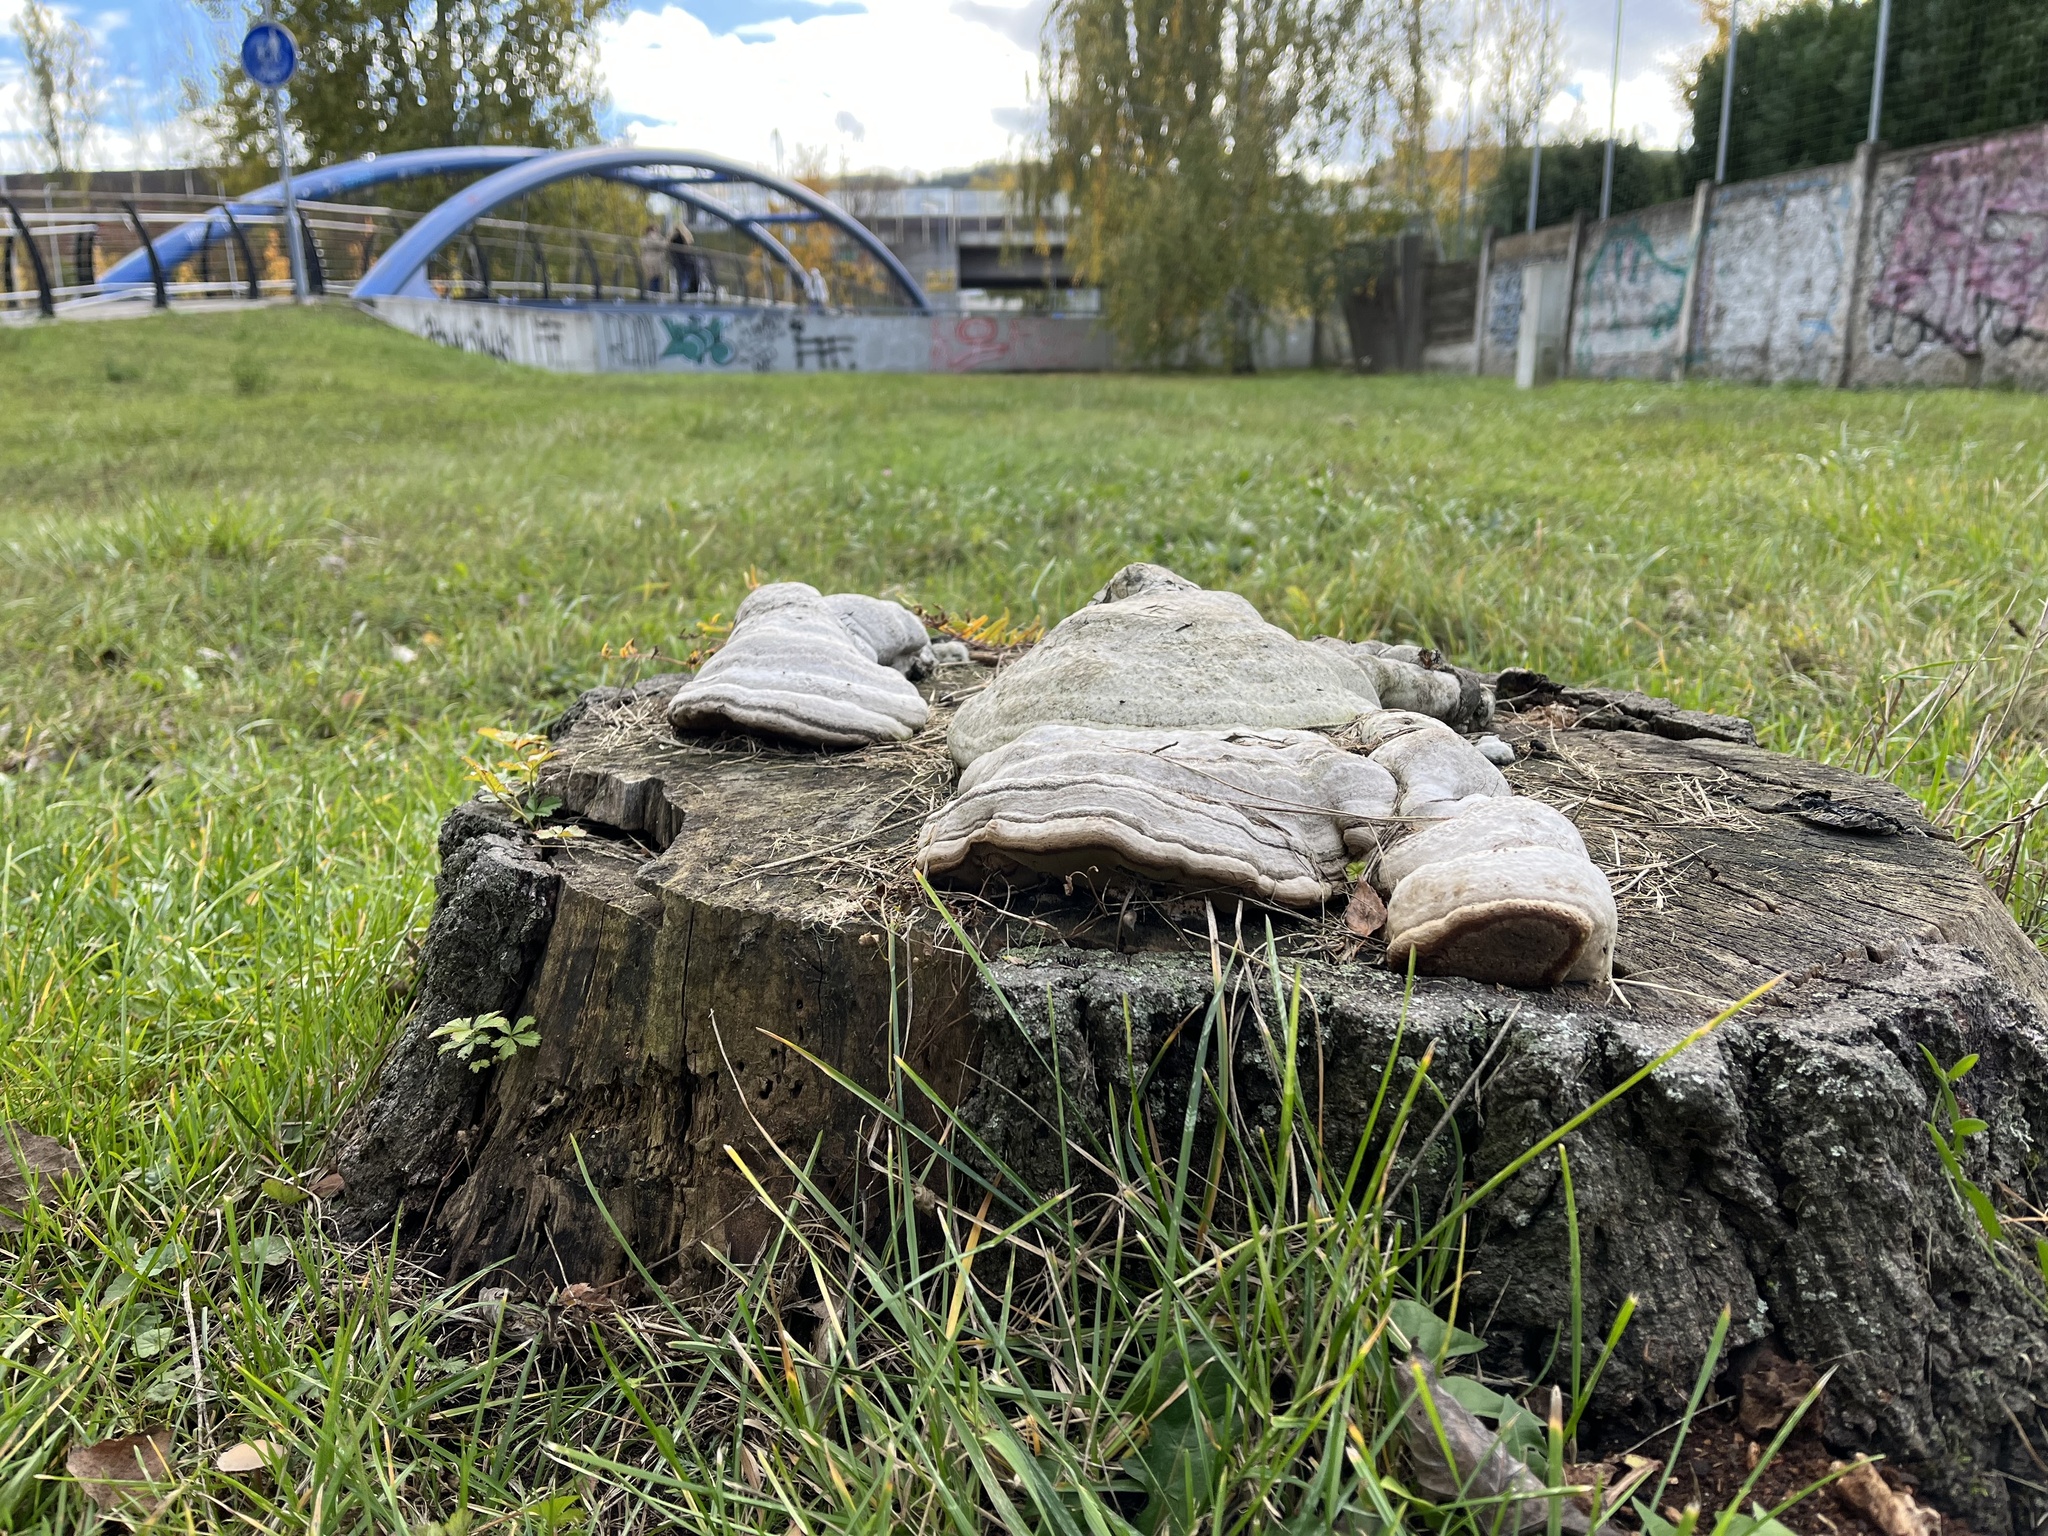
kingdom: Fungi
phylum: Basidiomycota
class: Agaricomycetes
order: Polyporales
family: Polyporaceae
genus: Fomes
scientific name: Fomes fomentarius
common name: Hoof fungus
